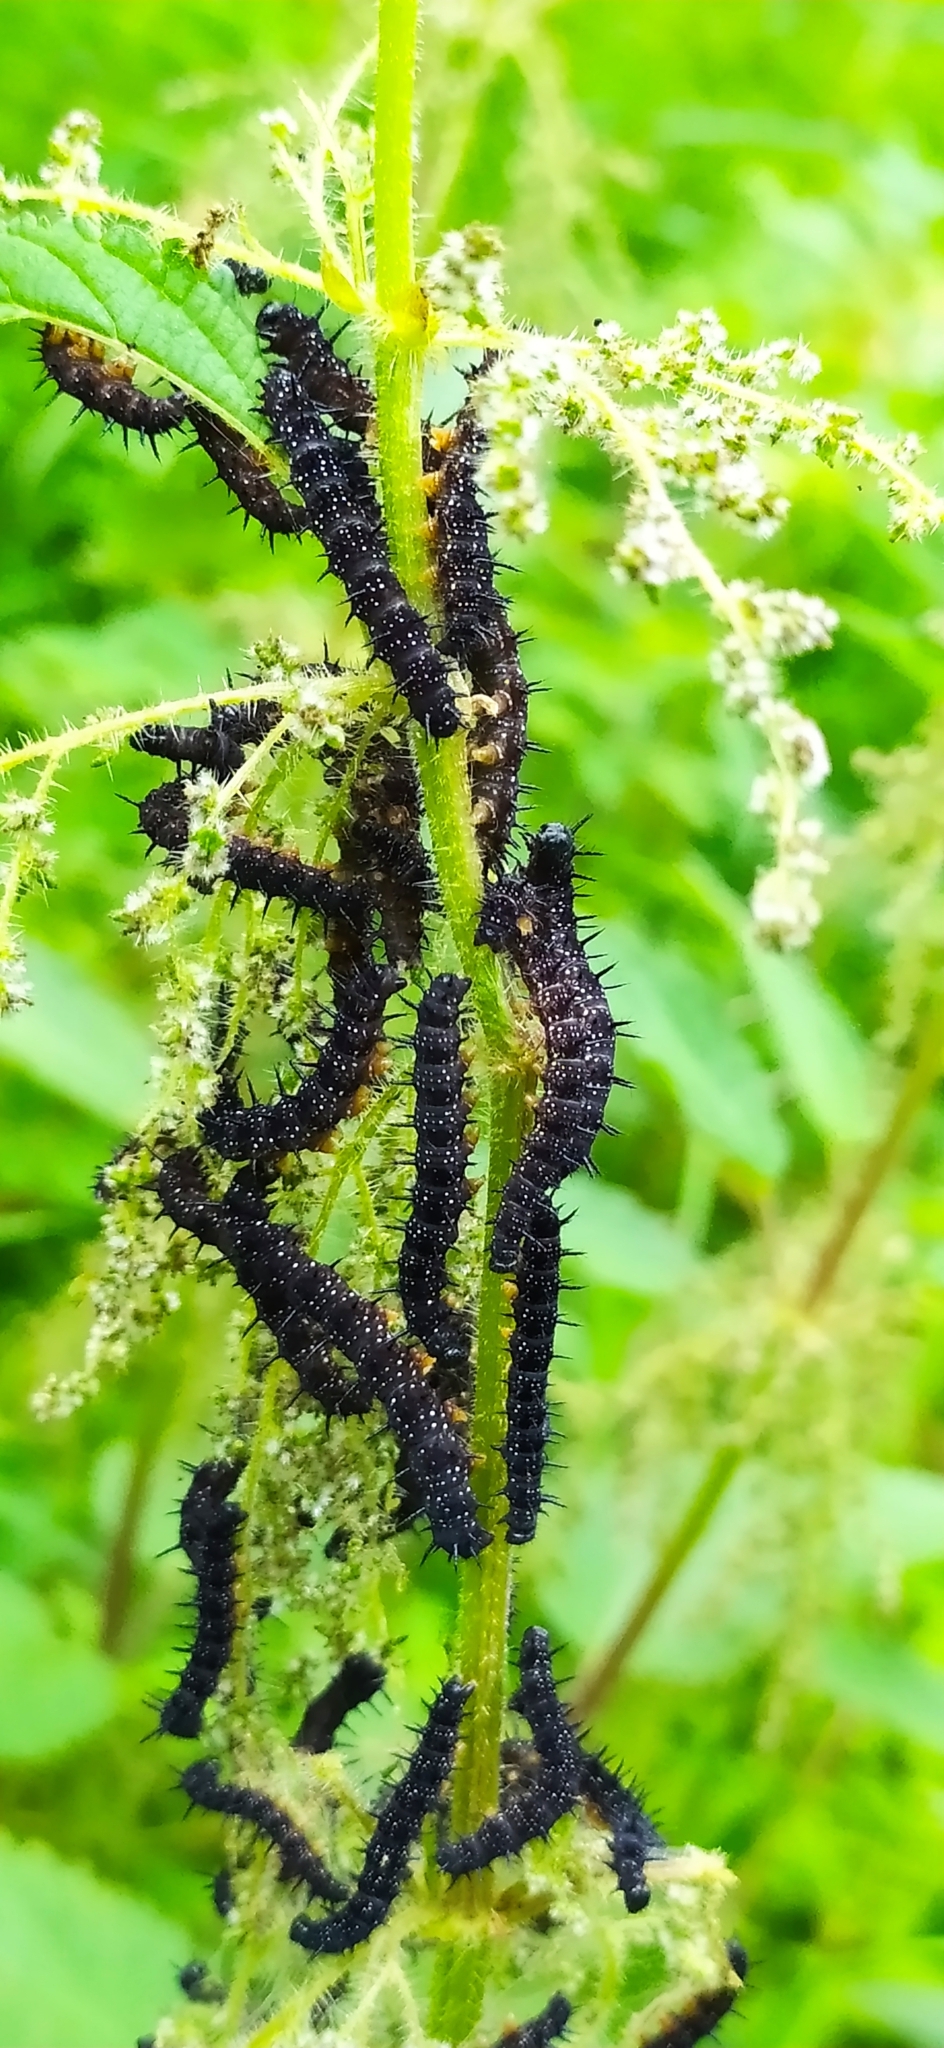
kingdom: Animalia
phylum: Arthropoda
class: Insecta
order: Lepidoptera
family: Nymphalidae
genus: Aglais
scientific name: Aglais io
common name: Peacock
